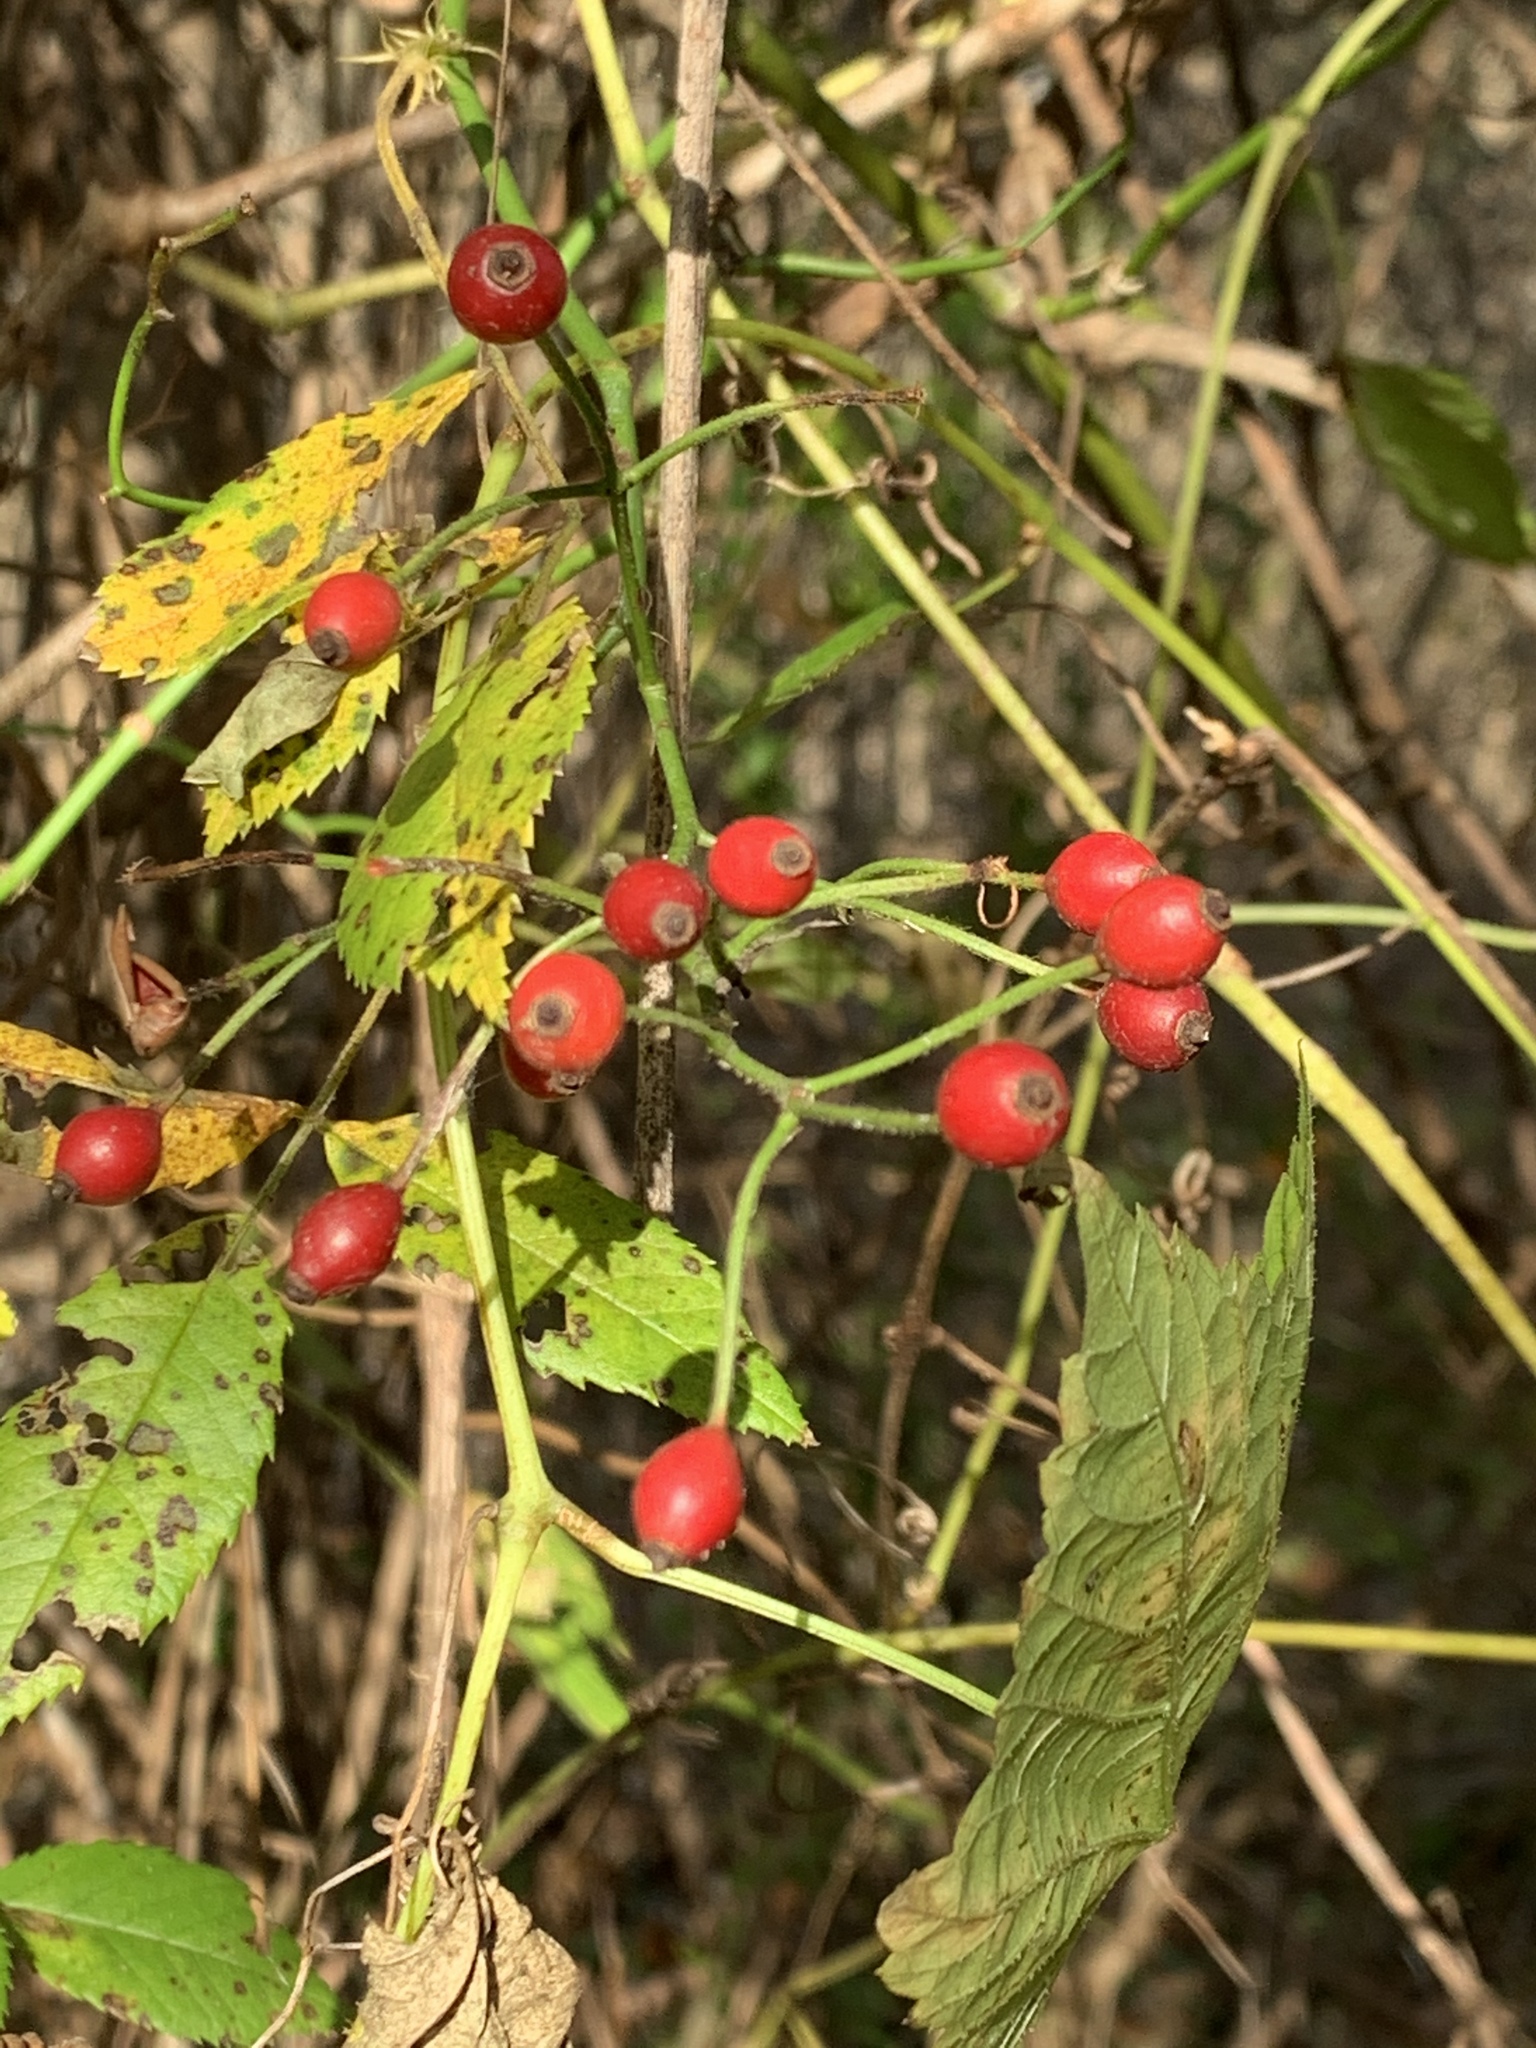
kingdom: Plantae
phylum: Tracheophyta
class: Magnoliopsida
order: Rosales
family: Rosaceae
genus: Rosa
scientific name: Rosa multiflora
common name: Multiflora rose
